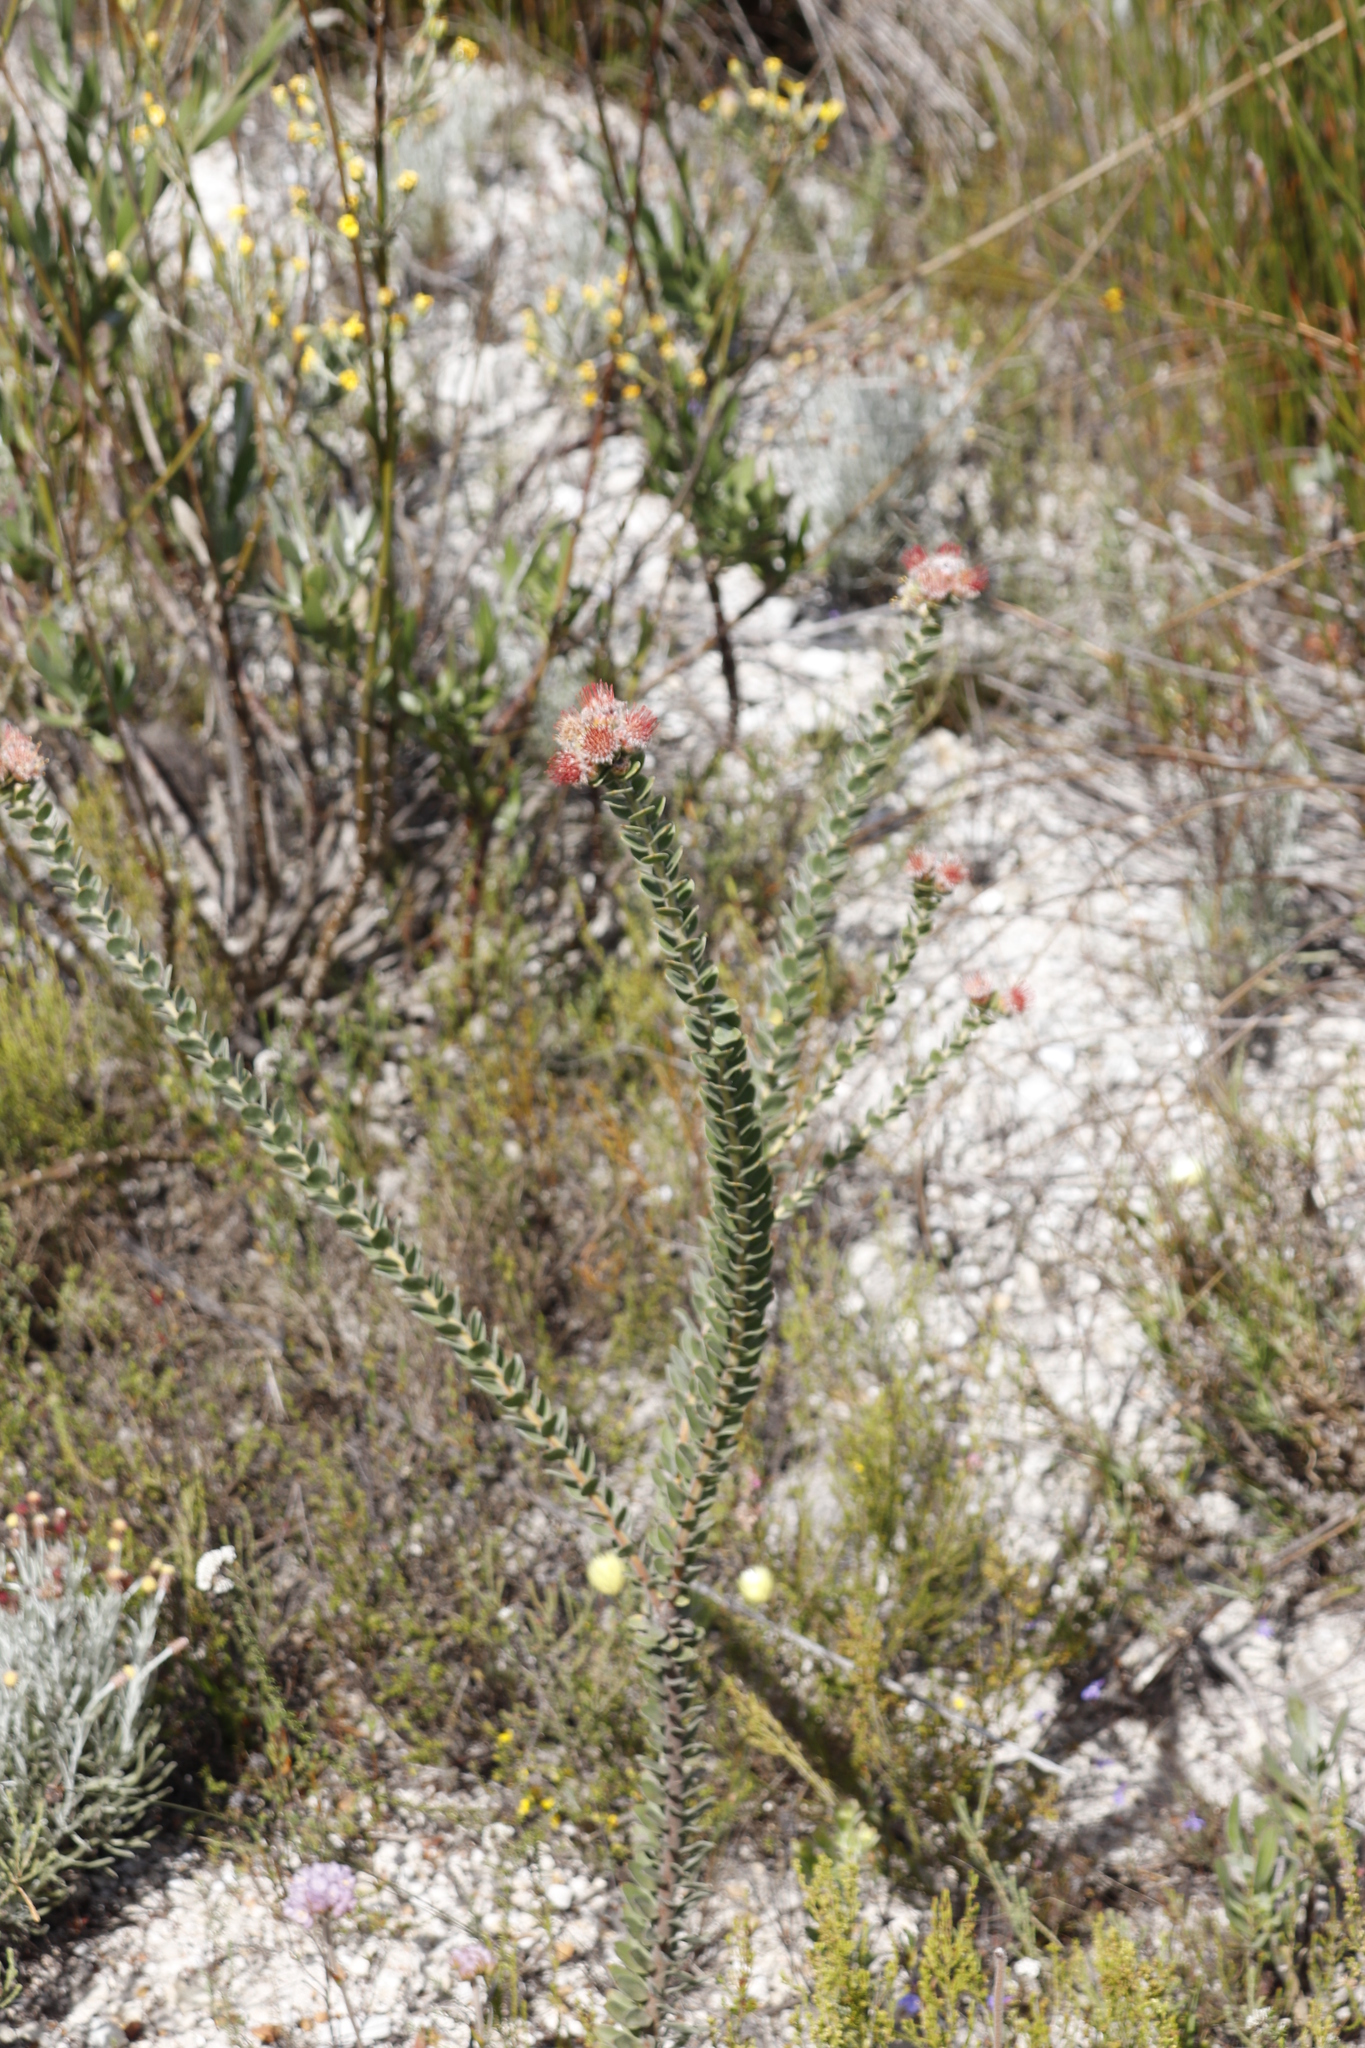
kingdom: Plantae
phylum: Tracheophyta
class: Magnoliopsida
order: Proteales
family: Proteaceae
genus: Leucospermum
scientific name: Leucospermum truncatulum
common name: Oval-leaf pincushion
